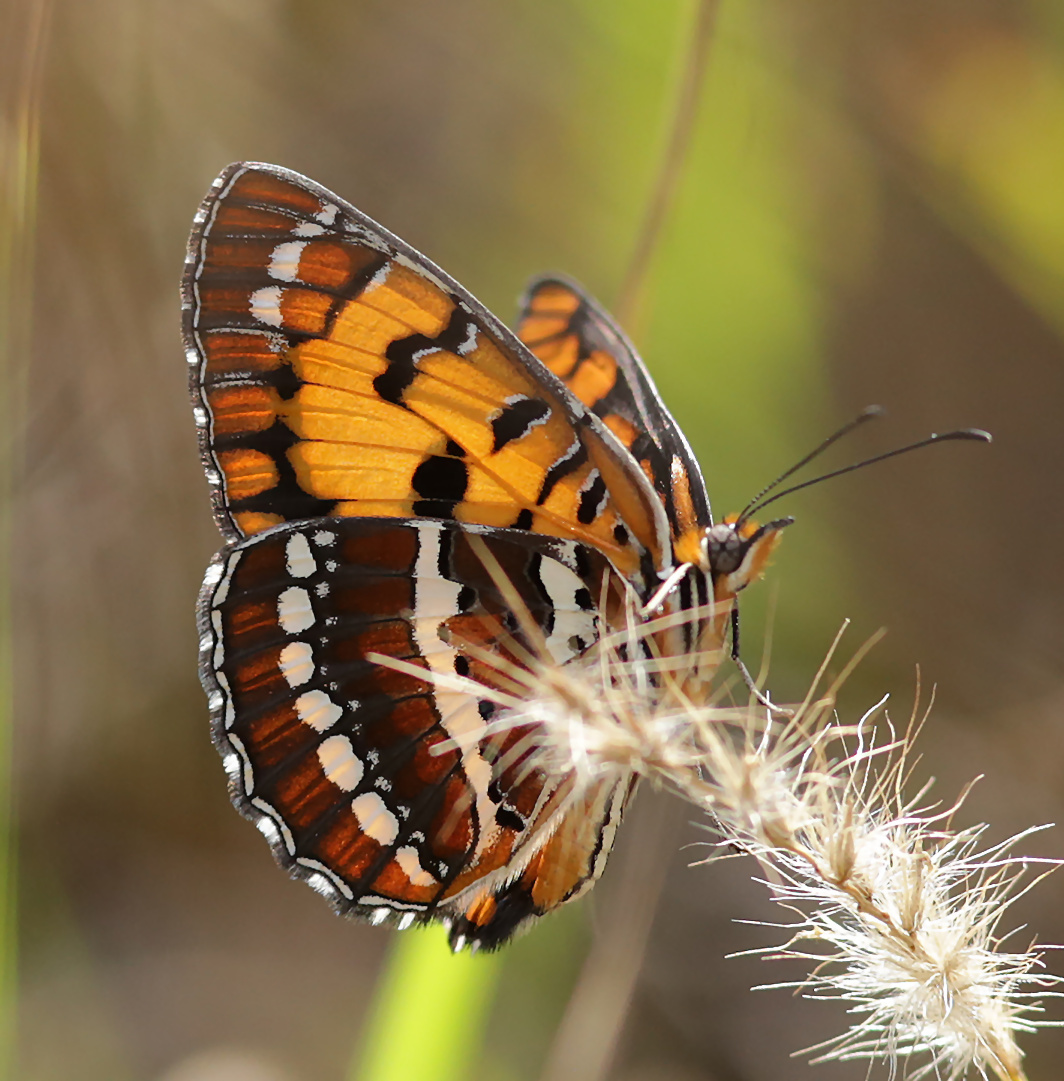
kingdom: Animalia
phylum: Arthropoda
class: Insecta
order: Lepidoptera
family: Nymphalidae
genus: Byblia
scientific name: Byblia ilithyia
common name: Spotted joker
